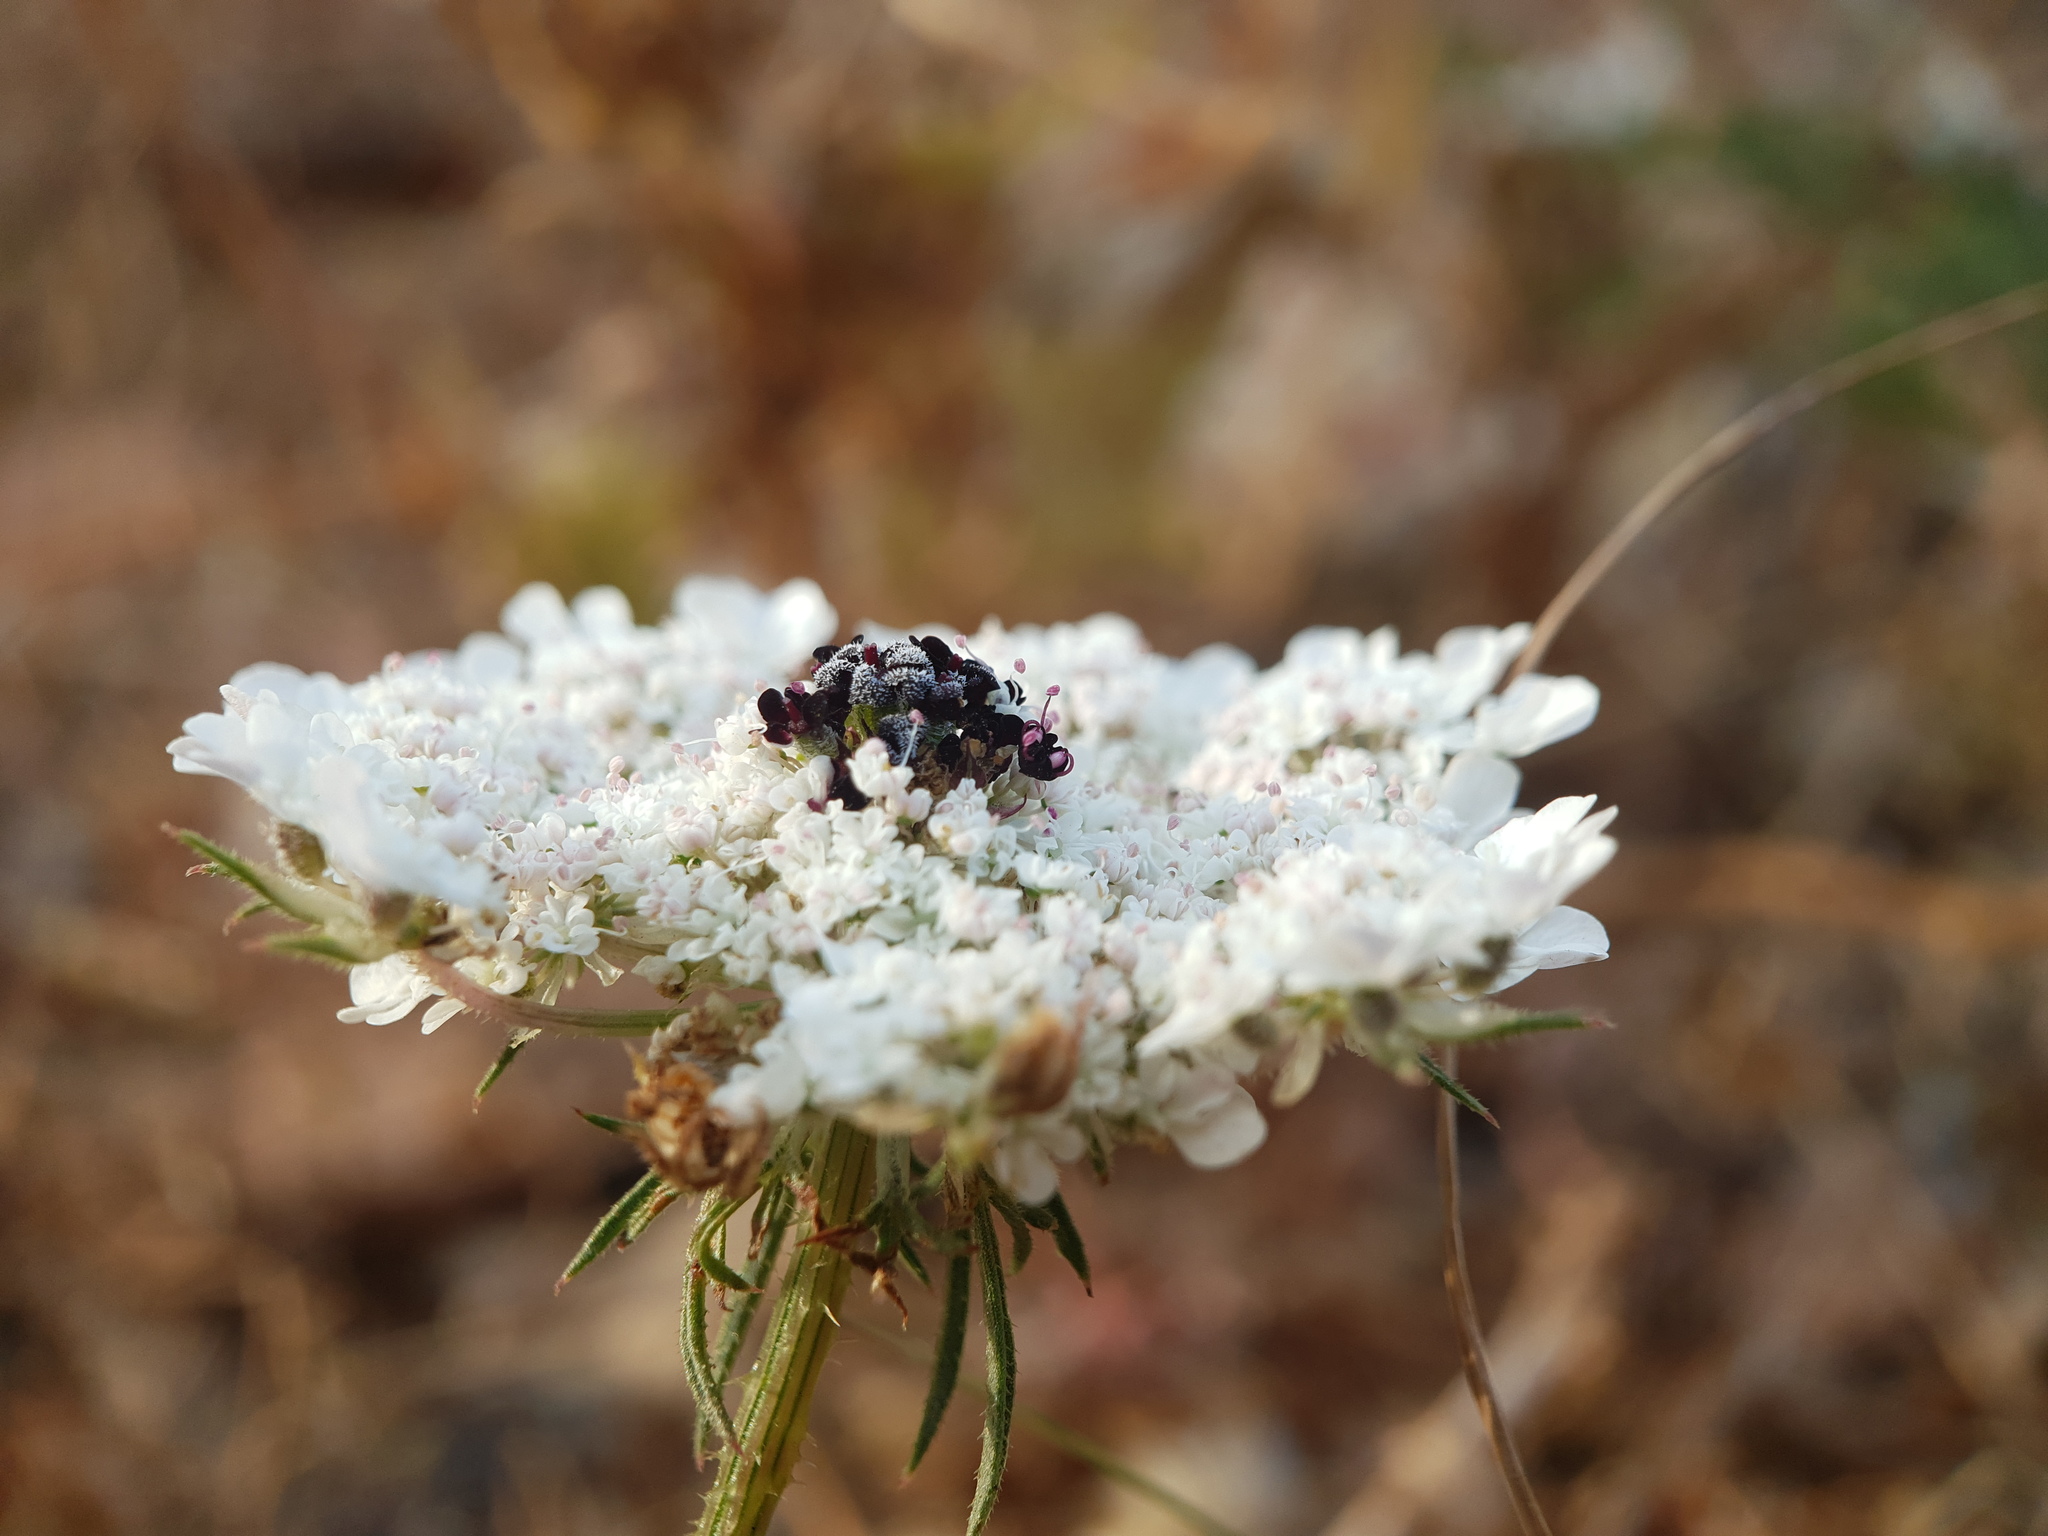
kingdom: Plantae
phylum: Tracheophyta
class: Magnoliopsida
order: Apiales
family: Apiaceae
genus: Daucus
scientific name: Daucus carota
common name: Wild carrot
